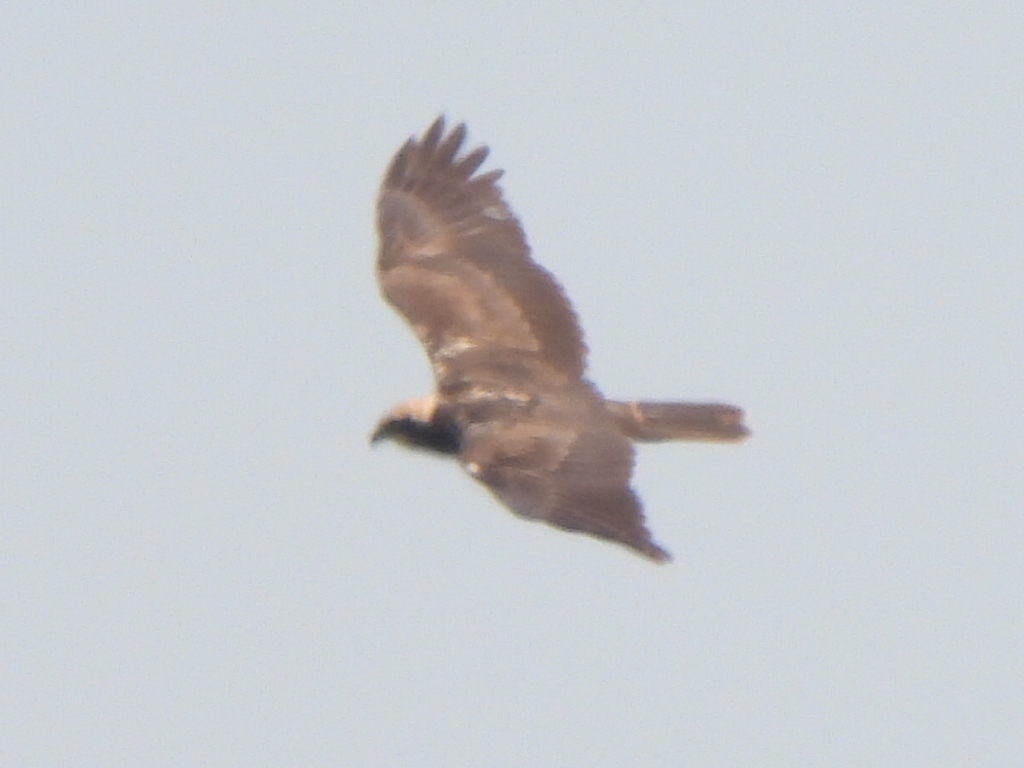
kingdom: Animalia
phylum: Chordata
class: Aves
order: Accipitriformes
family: Accipitridae
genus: Circus
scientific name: Circus aeruginosus
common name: Western marsh harrier
